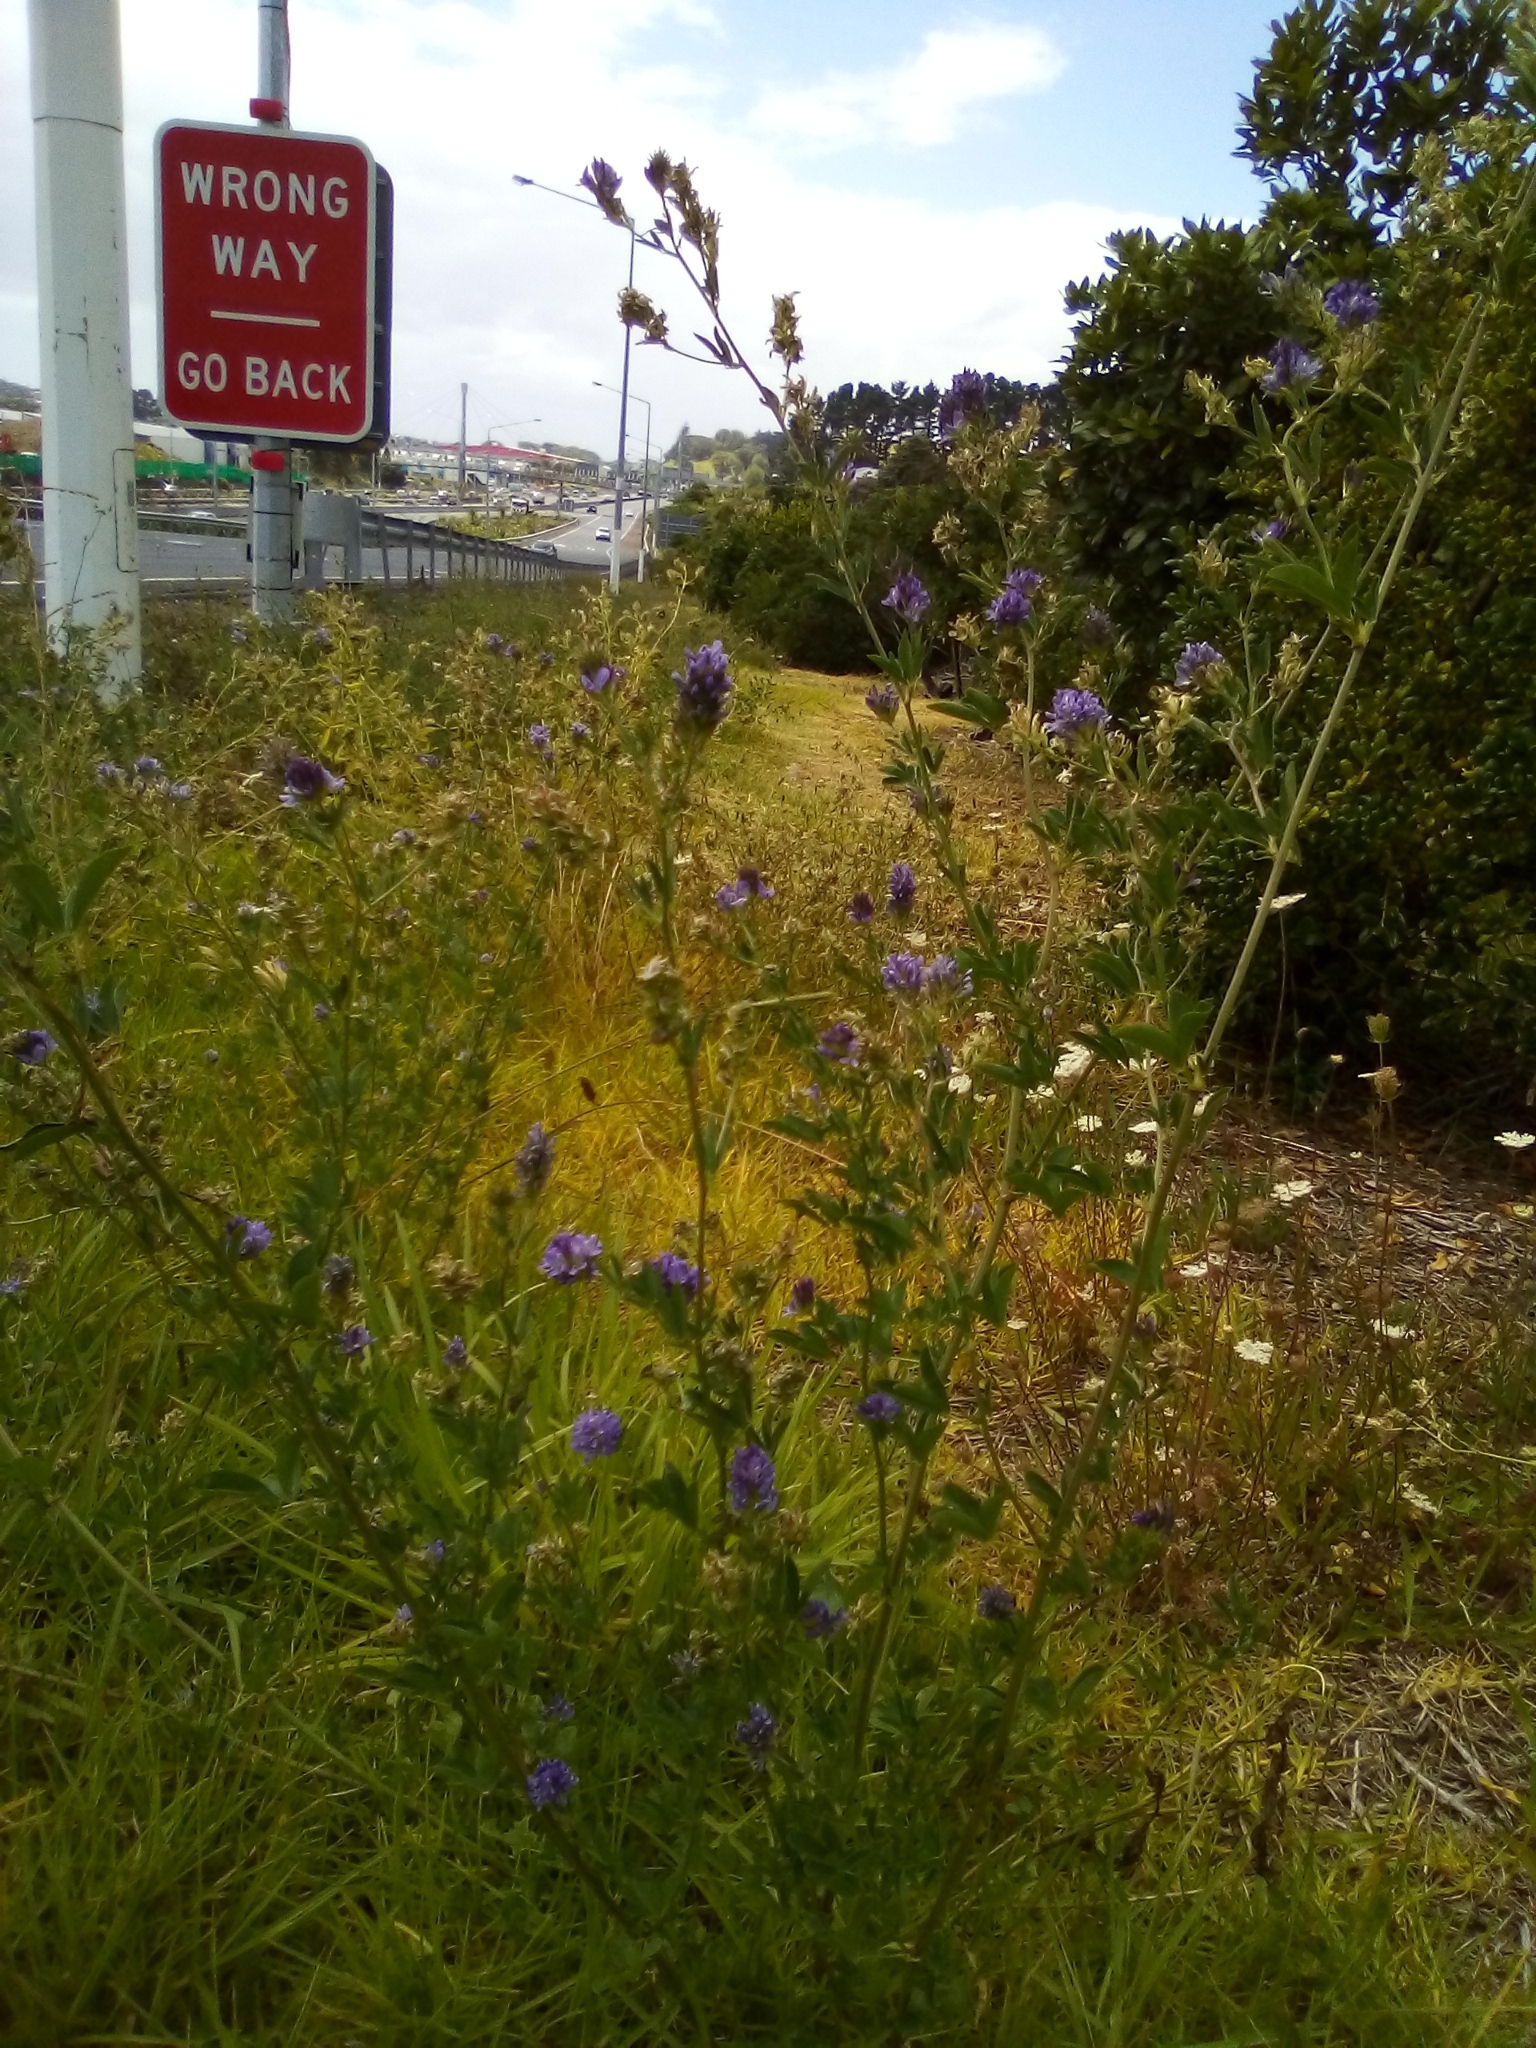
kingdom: Plantae
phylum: Tracheophyta
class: Magnoliopsida
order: Fabales
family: Fabaceae
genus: Medicago
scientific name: Medicago sativa
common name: Alfalfa
